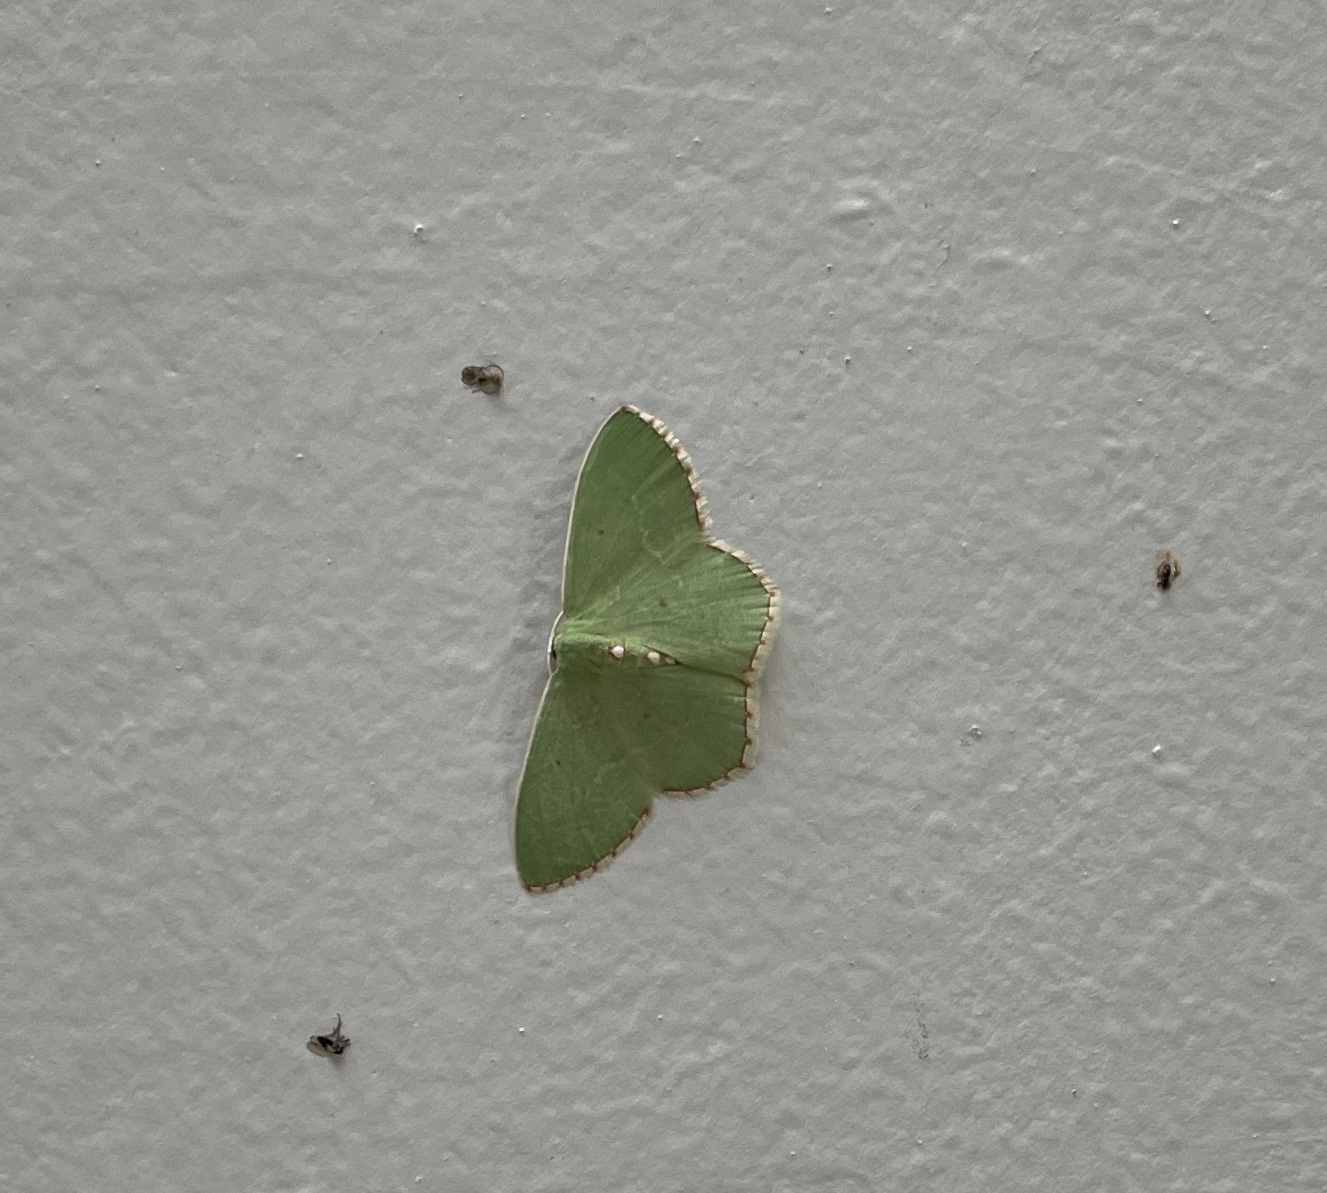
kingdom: Animalia
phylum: Arthropoda
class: Insecta
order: Lepidoptera
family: Geometridae
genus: Nemoria
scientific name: Nemoria lixaria
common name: Red-bordered emerald
